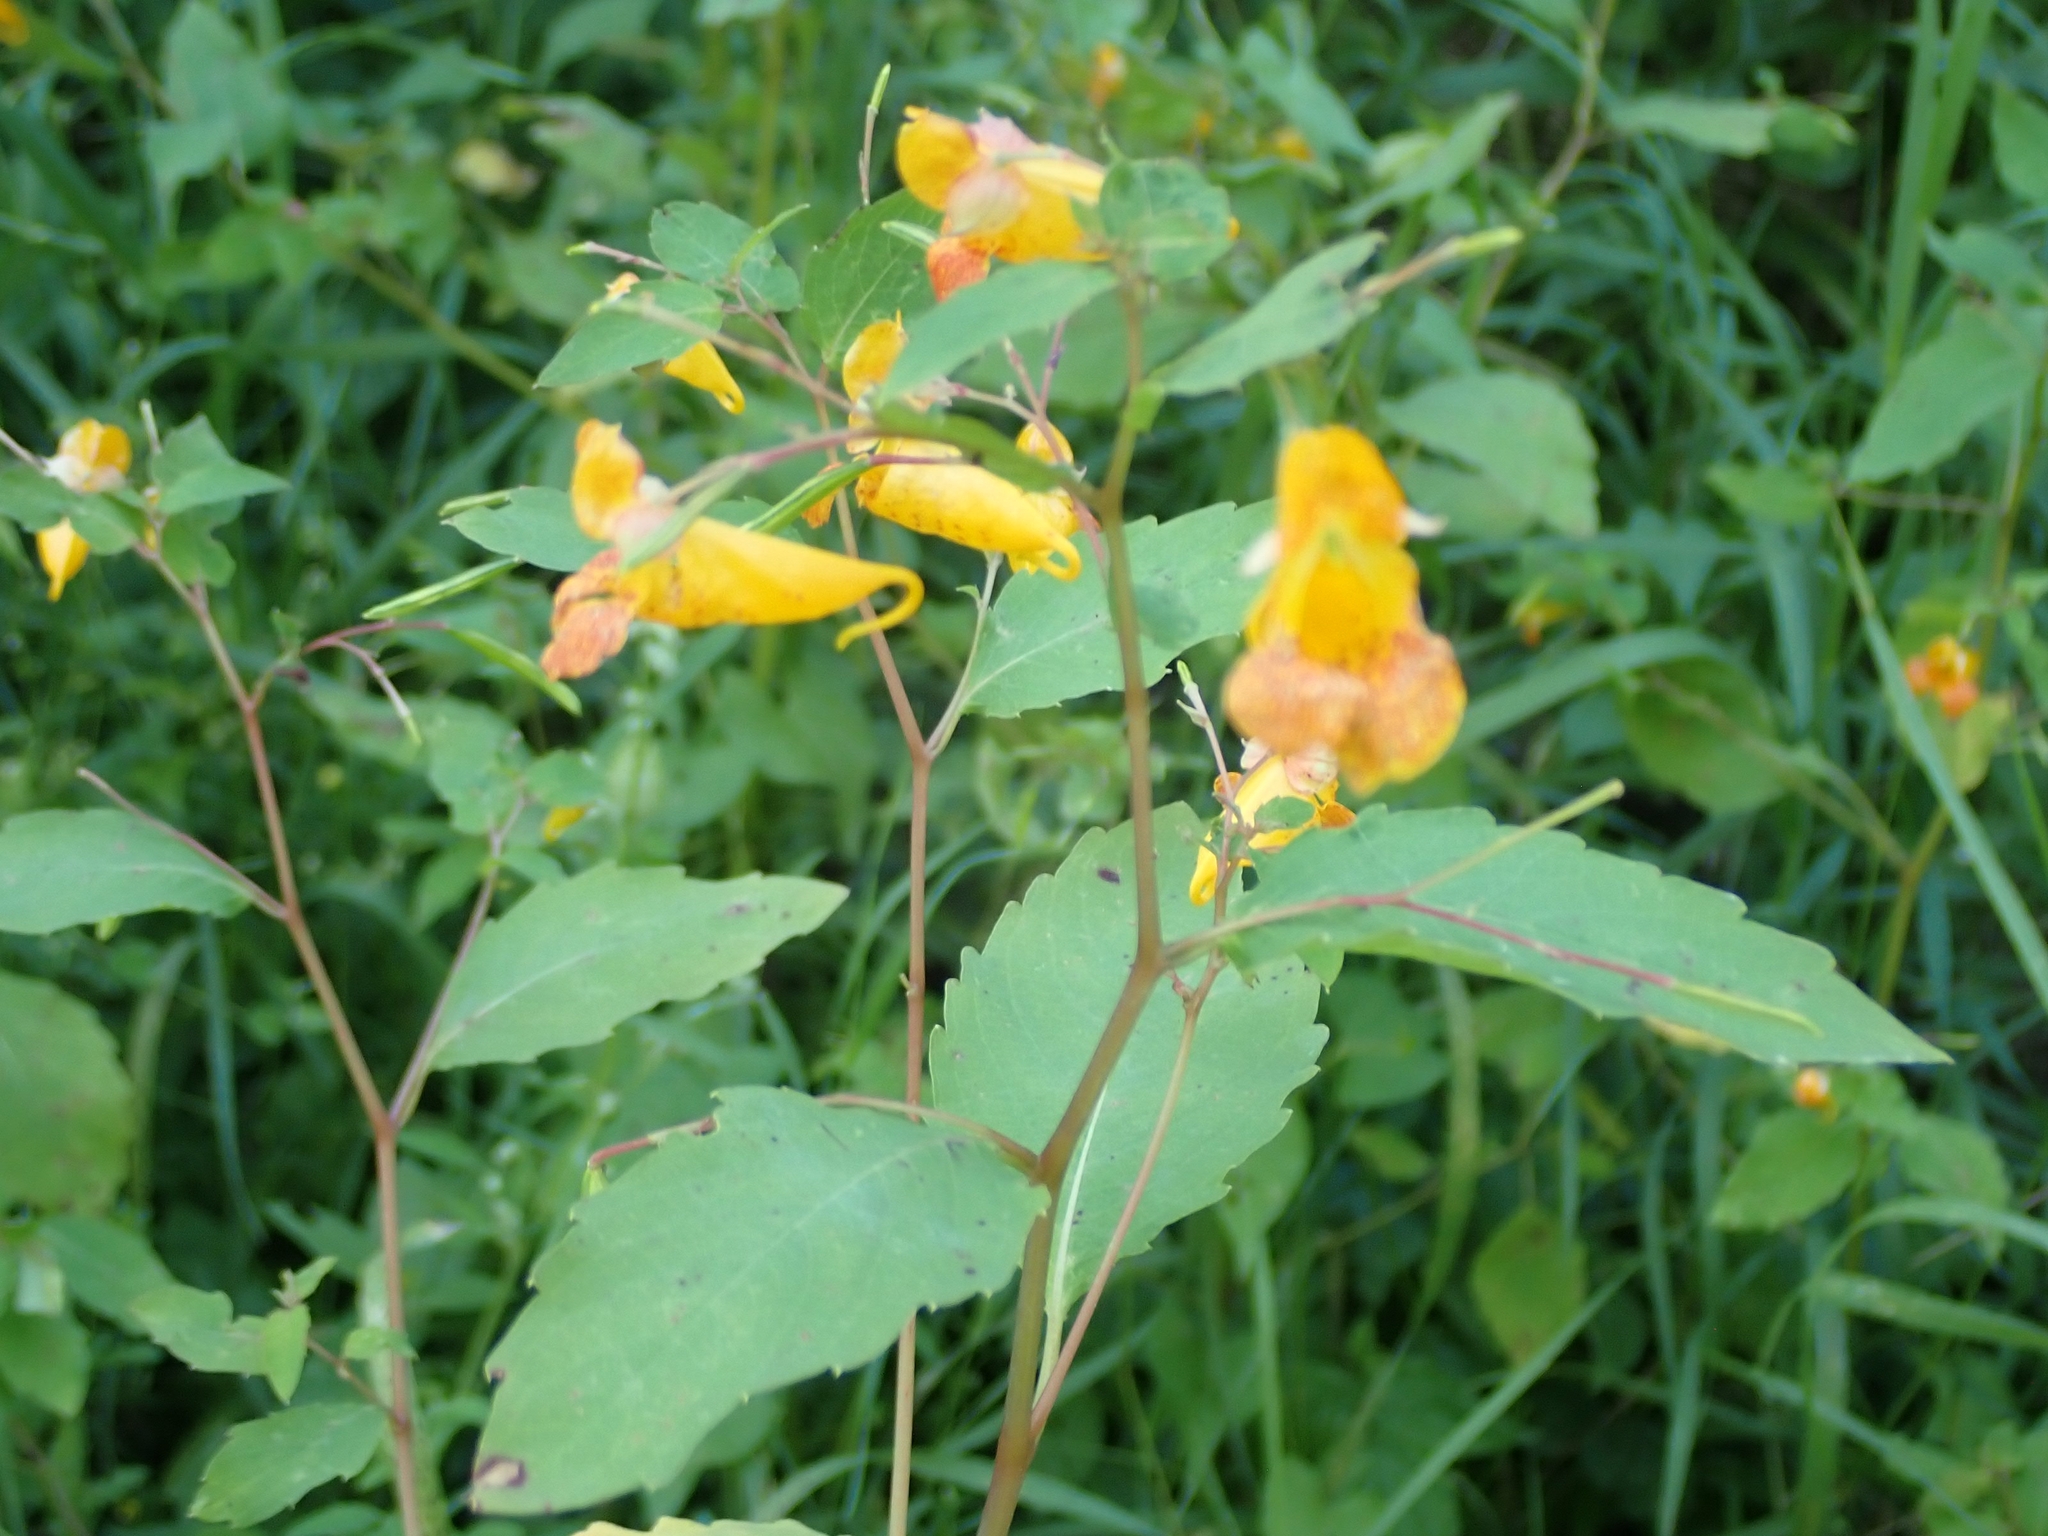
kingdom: Plantae
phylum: Tracheophyta
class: Magnoliopsida
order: Ericales
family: Balsaminaceae
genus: Impatiens
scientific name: Impatiens capensis
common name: Orange balsam
